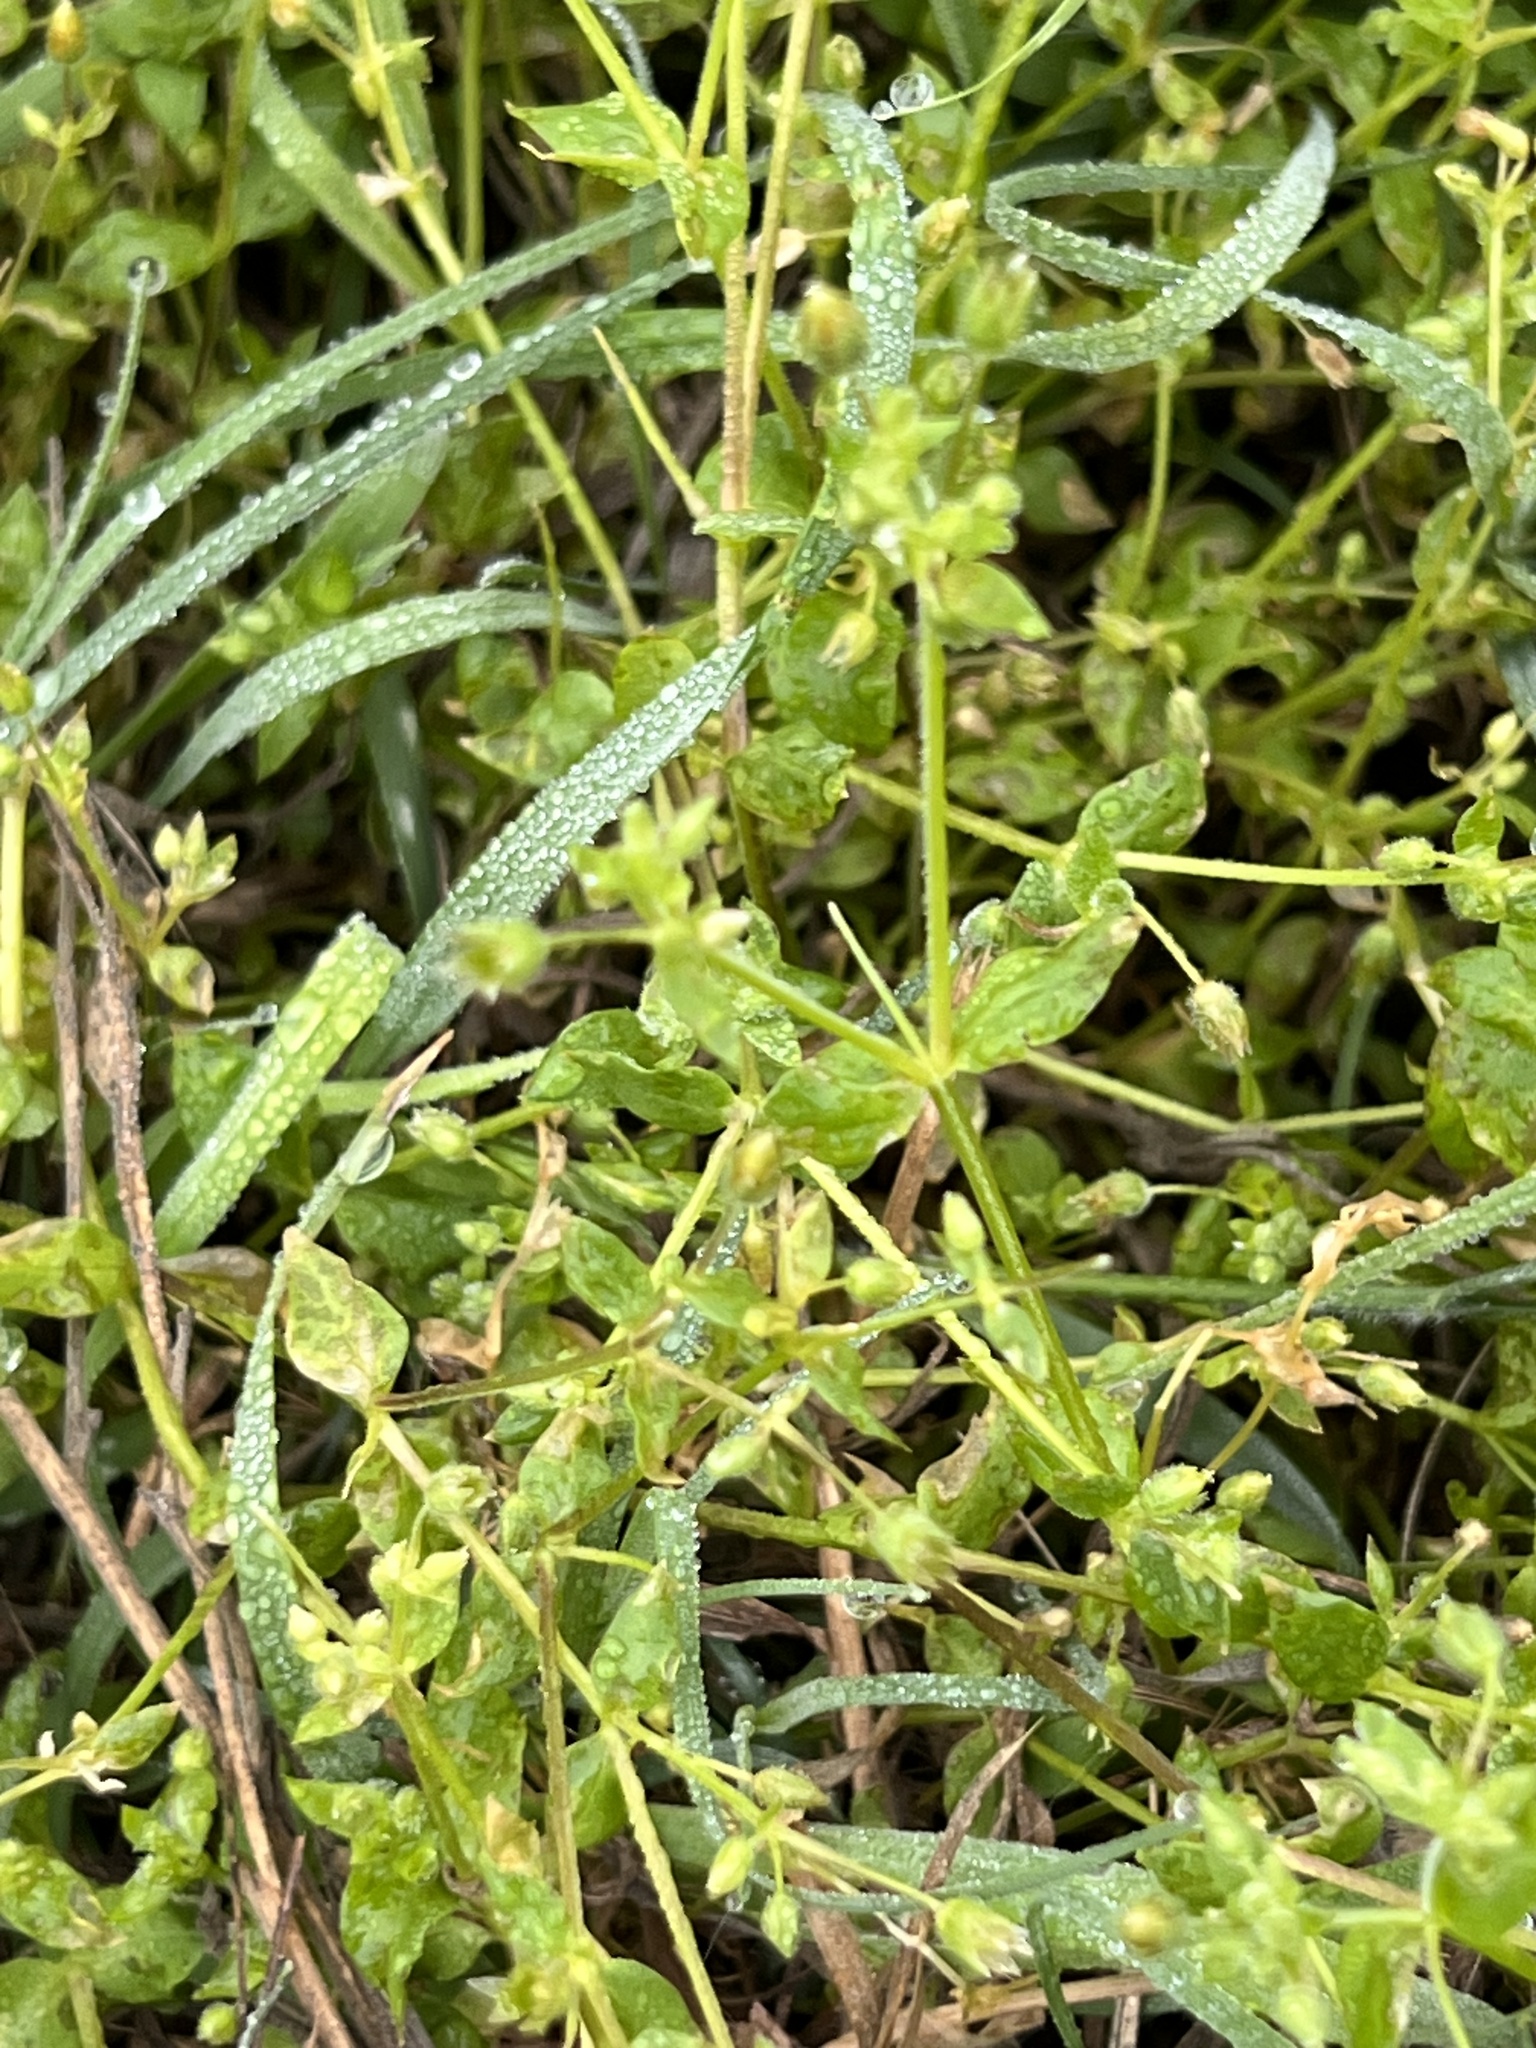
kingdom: Plantae
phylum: Tracheophyta
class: Magnoliopsida
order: Caryophyllales
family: Caryophyllaceae
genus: Stellaria
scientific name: Stellaria media
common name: Common chickweed
